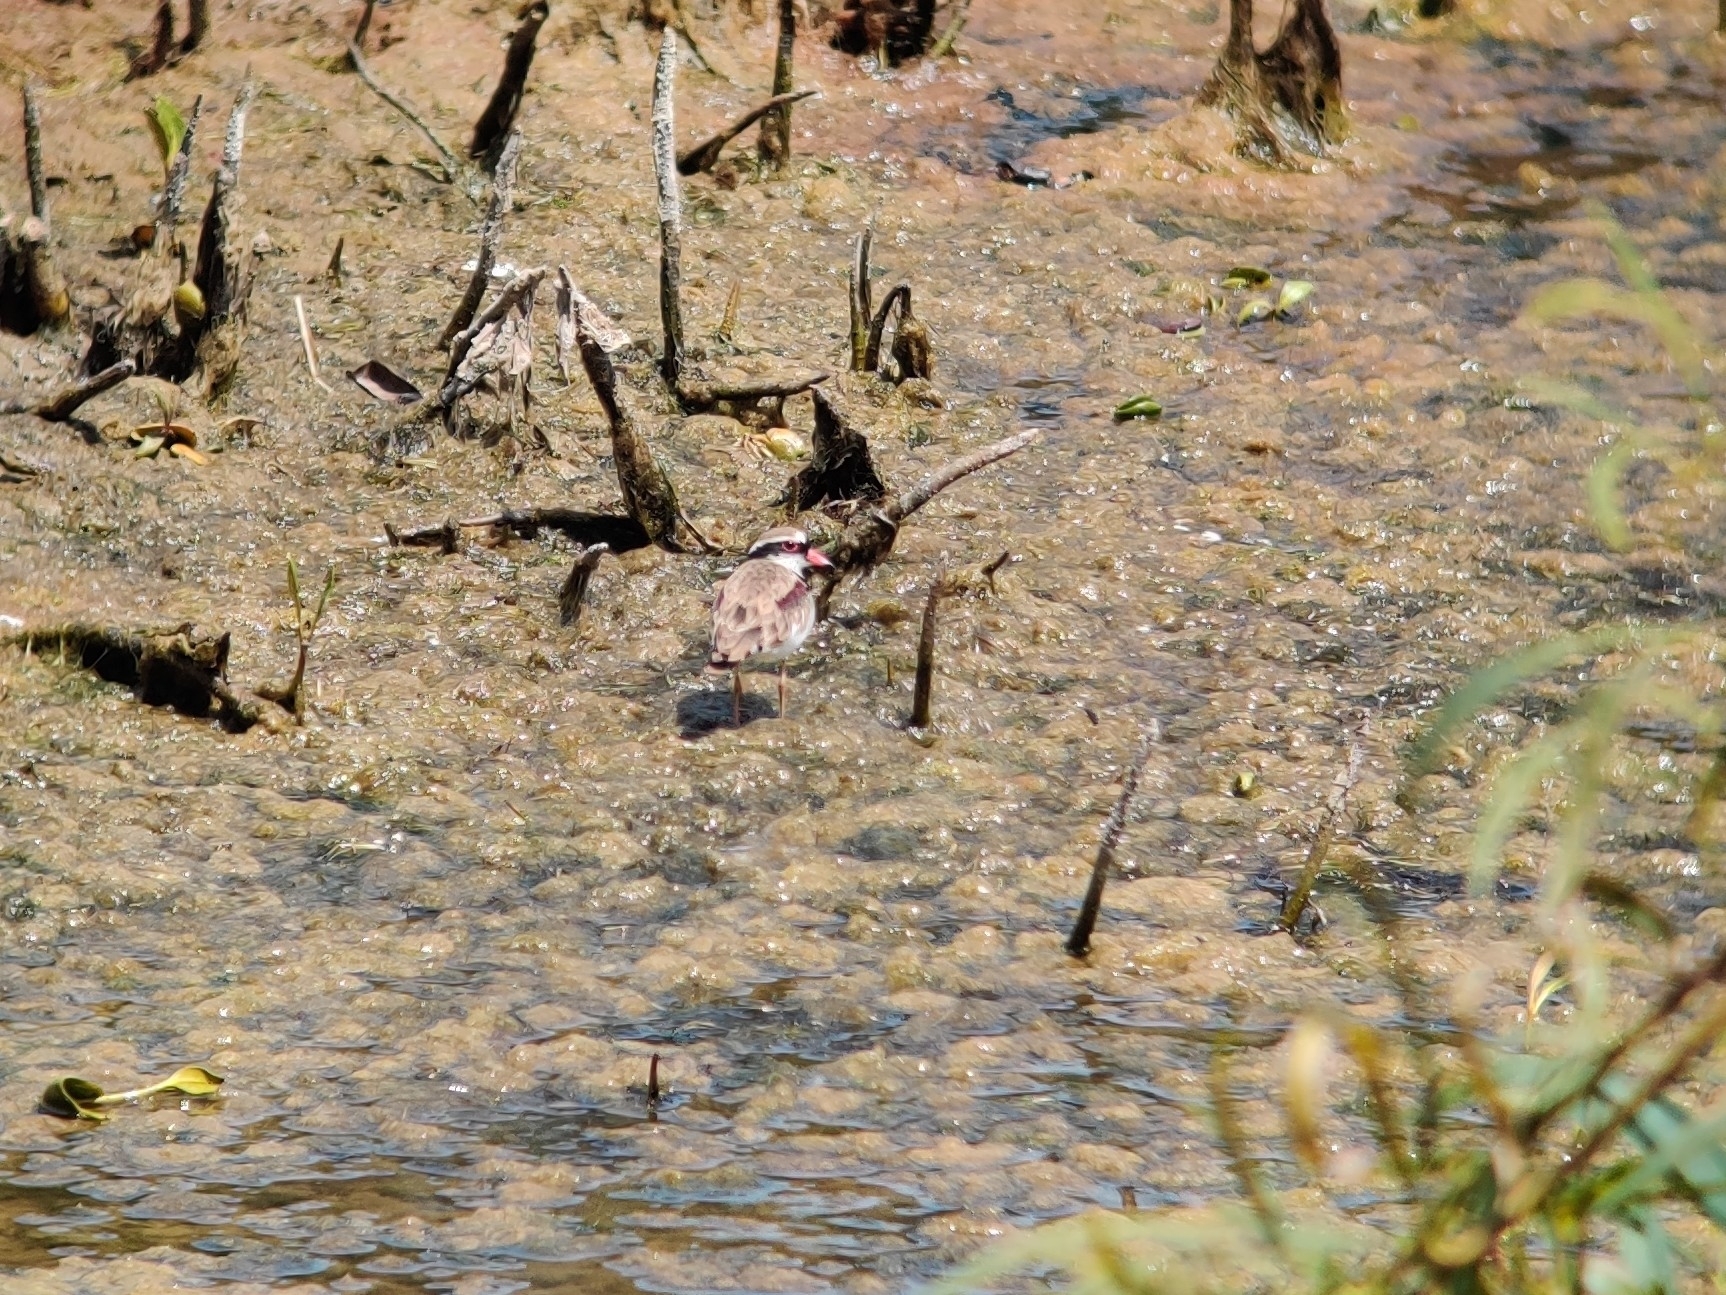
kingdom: Animalia
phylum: Chordata
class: Aves
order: Charadriiformes
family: Charadriidae
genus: Elseyornis
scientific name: Elseyornis melanops
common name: Black-fronted dotterel
